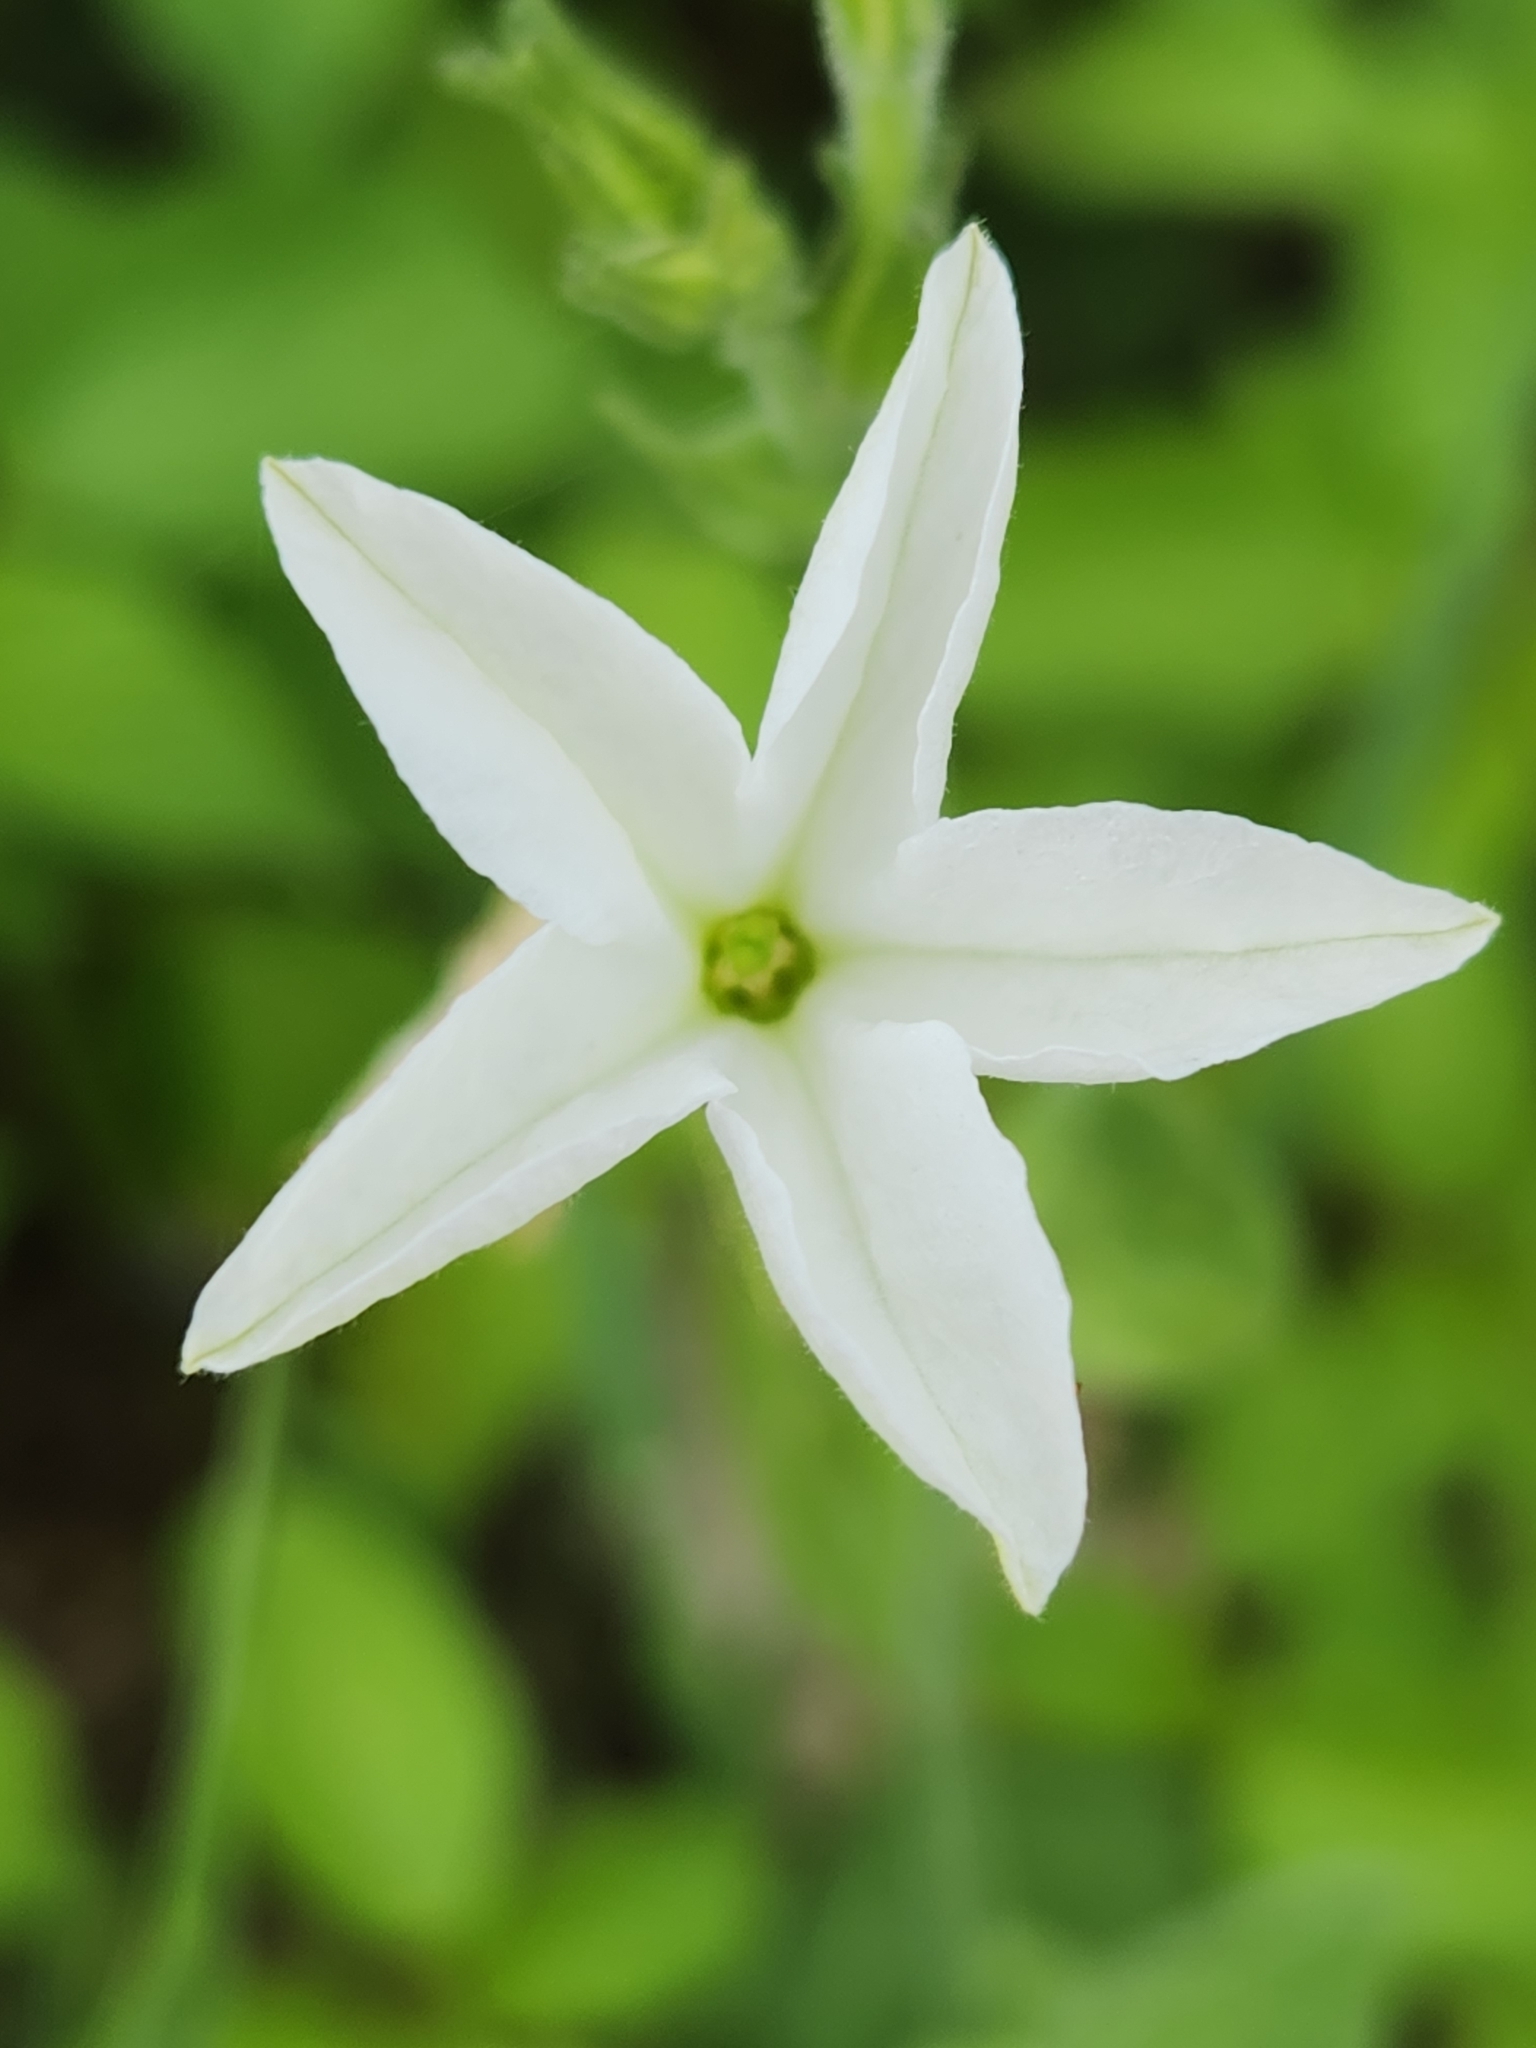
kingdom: Plantae
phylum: Tracheophyta
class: Magnoliopsida
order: Solanales
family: Solanaceae
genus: Nicotiana
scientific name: Nicotiana repanda
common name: Fiddle-leaf tobacco
